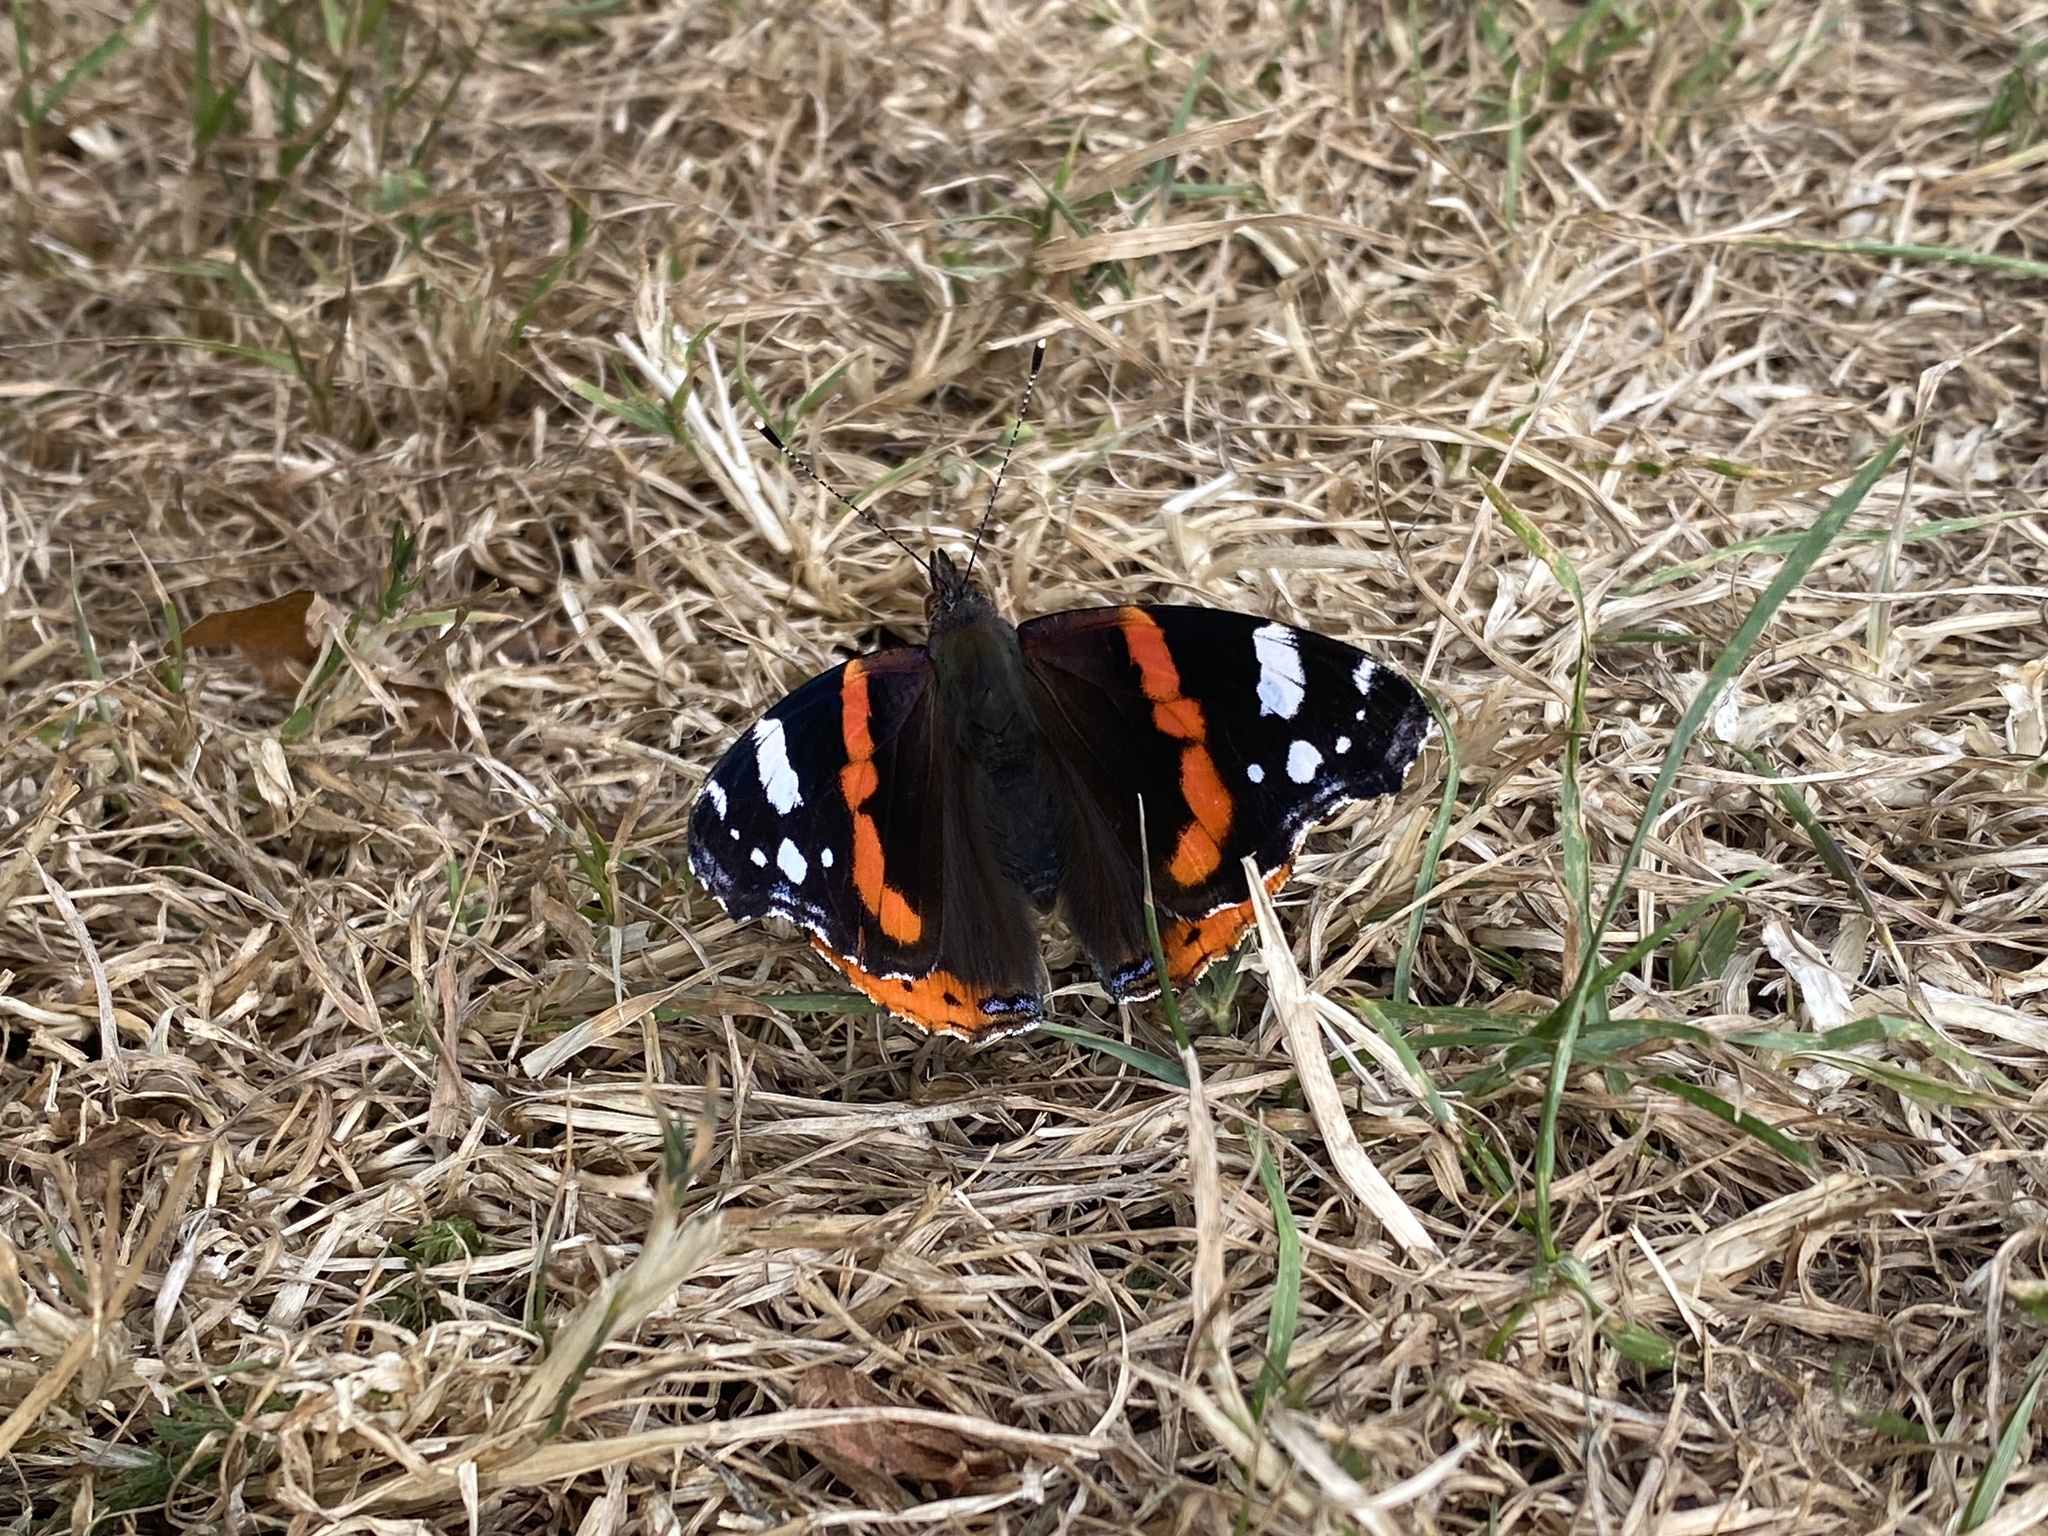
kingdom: Animalia
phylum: Arthropoda
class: Insecta
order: Lepidoptera
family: Nymphalidae
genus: Vanessa
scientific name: Vanessa atalanta
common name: Red admiral
